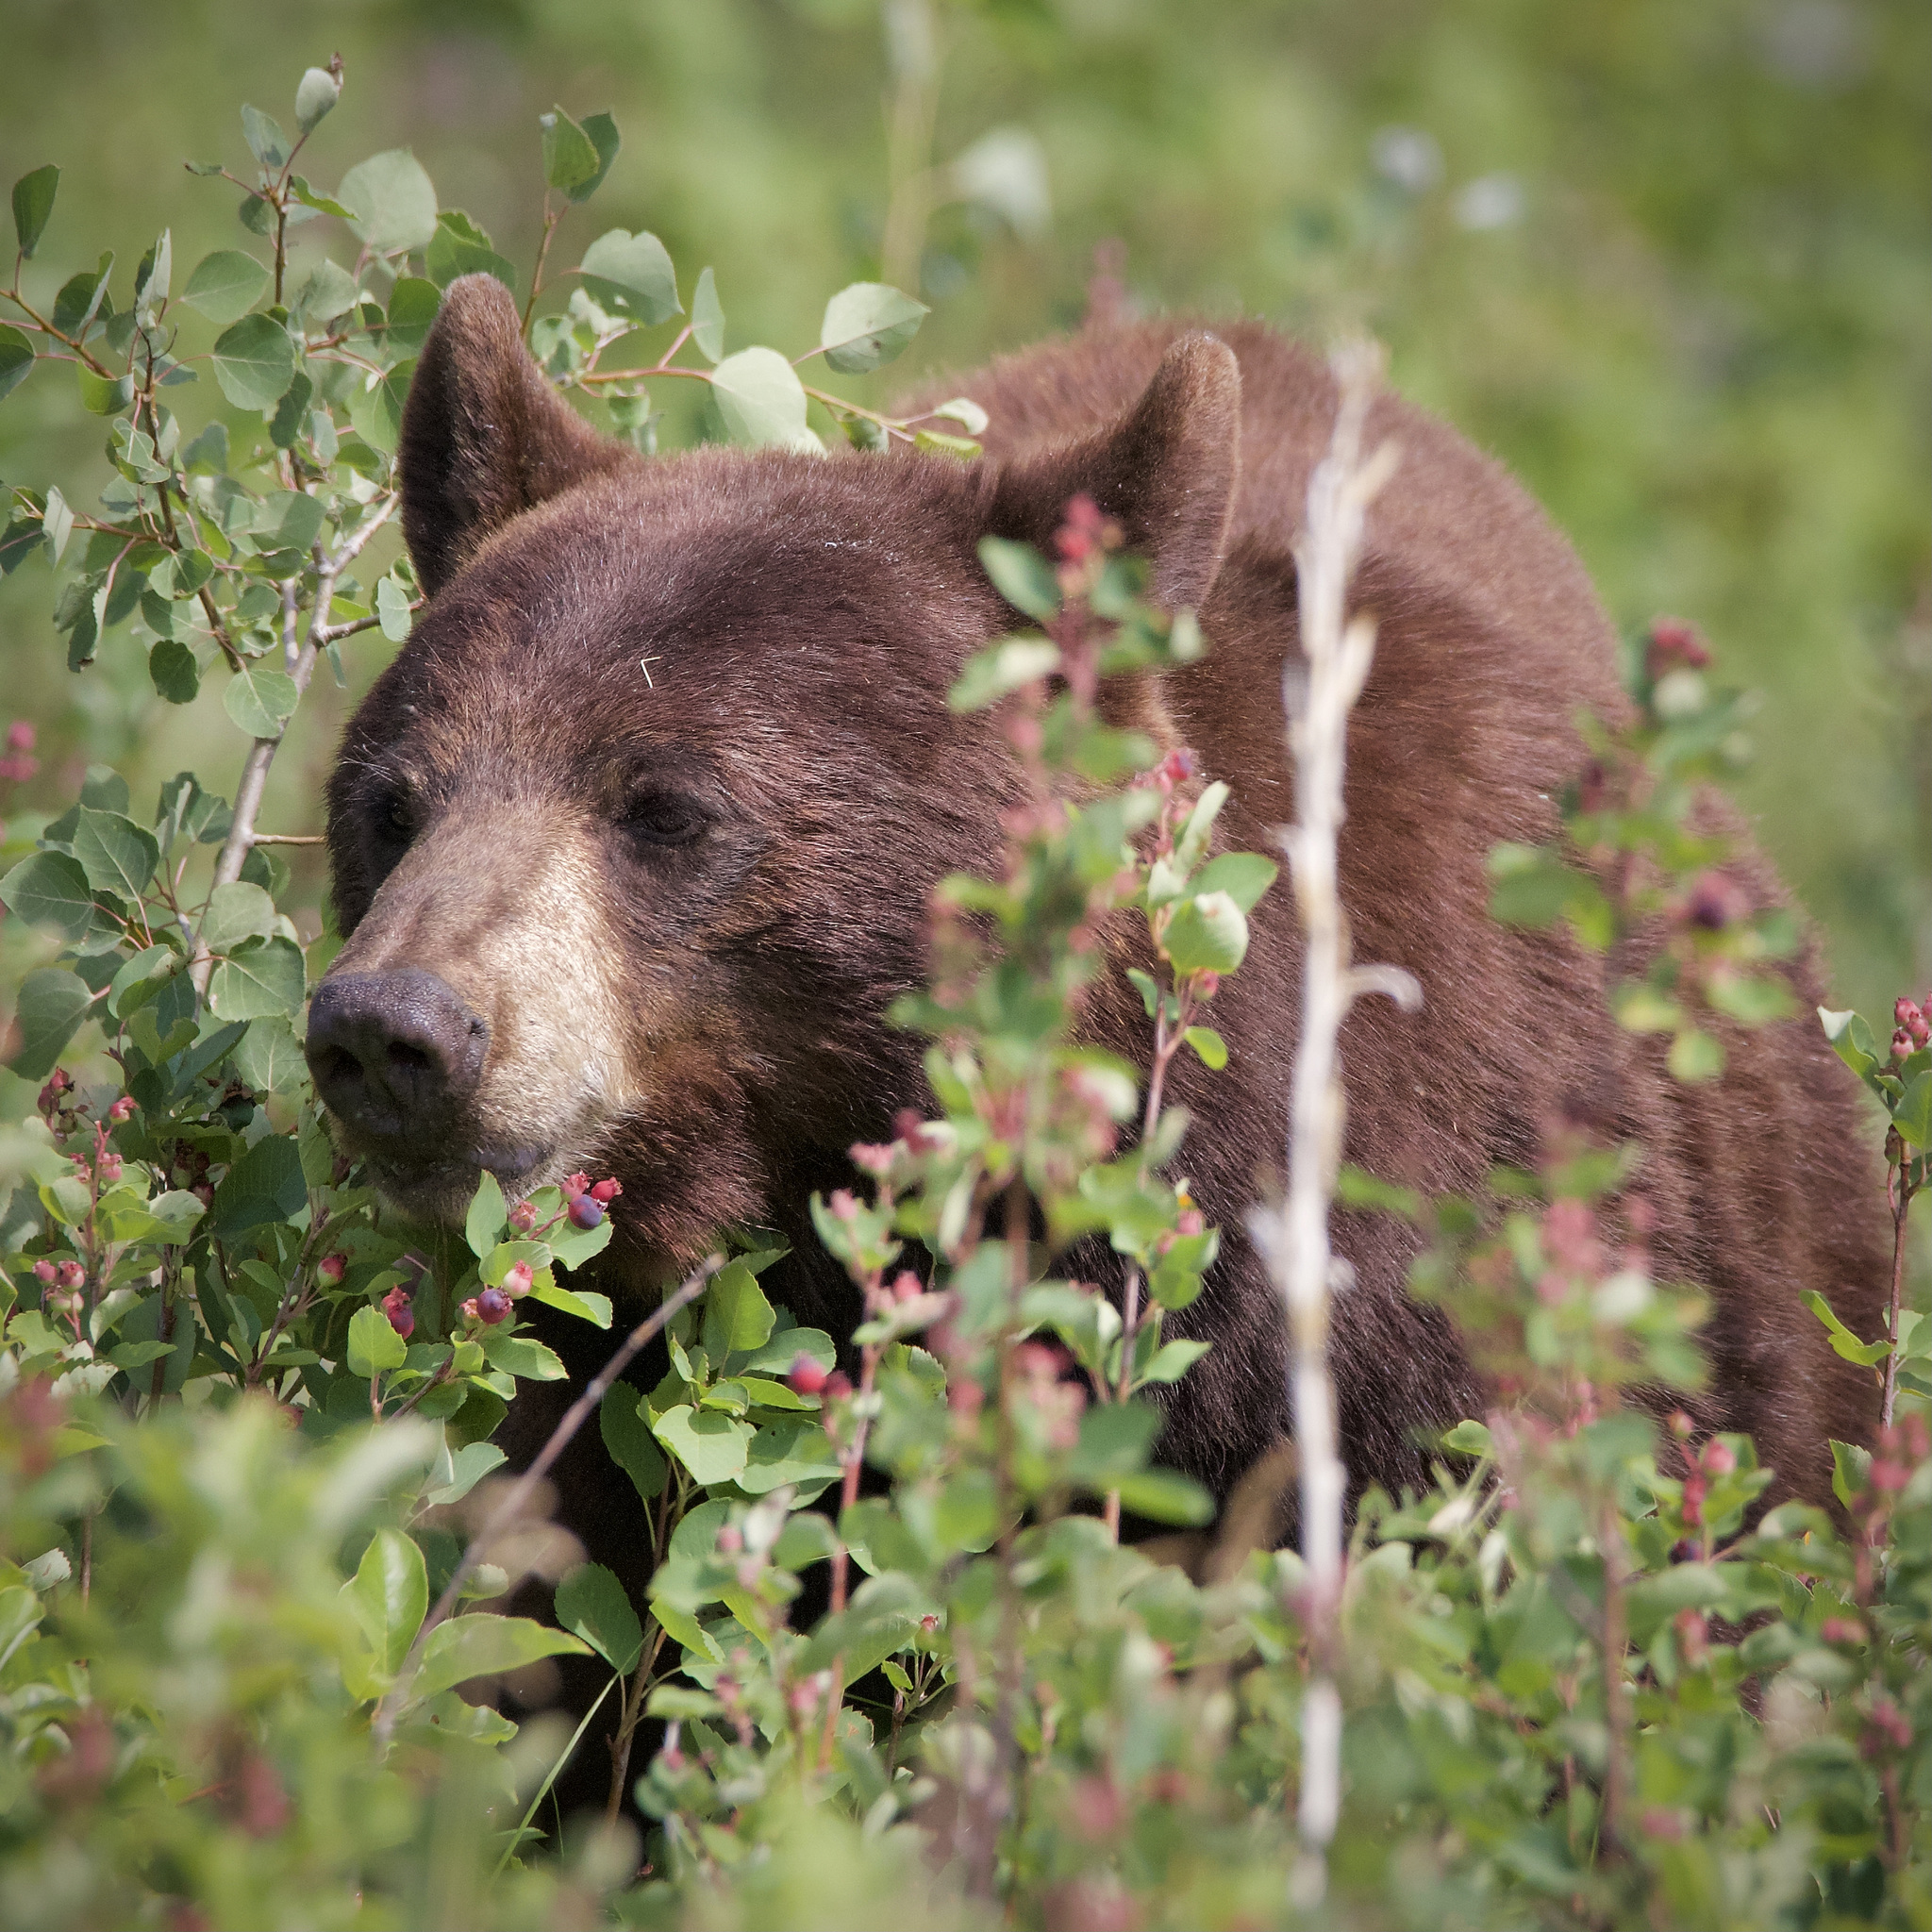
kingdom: Animalia
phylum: Chordata
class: Mammalia
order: Carnivora
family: Ursidae
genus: Ursus
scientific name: Ursus americanus
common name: American black bear
